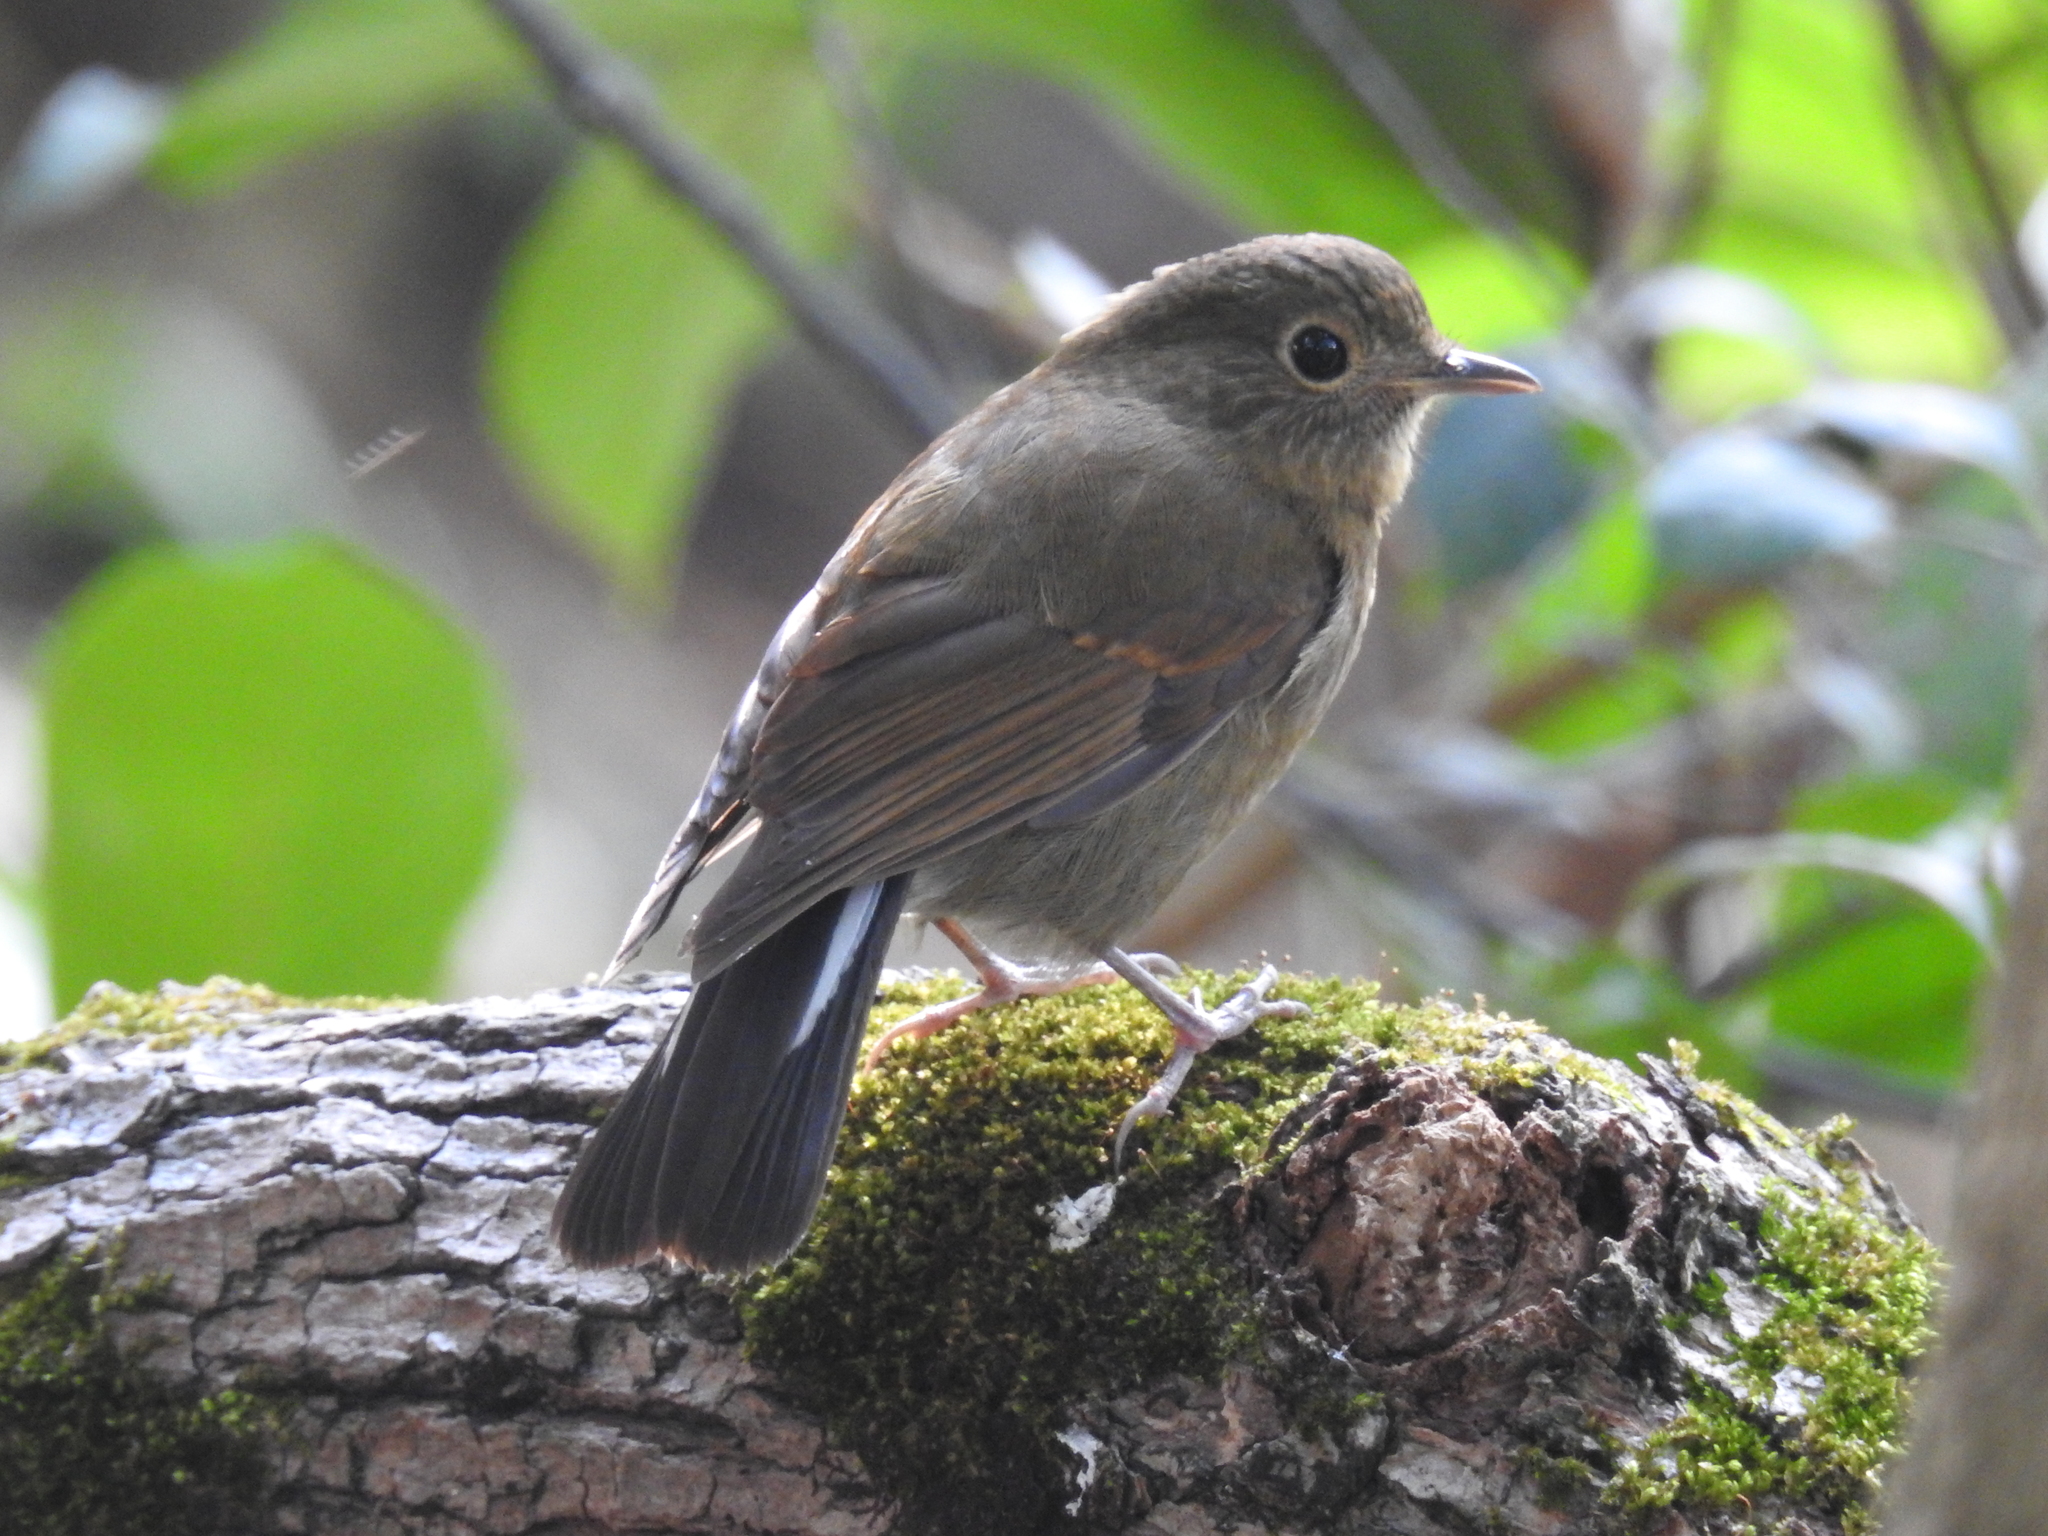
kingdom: Animalia
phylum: Chordata
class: Aves
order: Passeriformes
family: Muscicapidae
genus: Myiomela
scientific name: Myiomela leucura
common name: White-tailed robin
